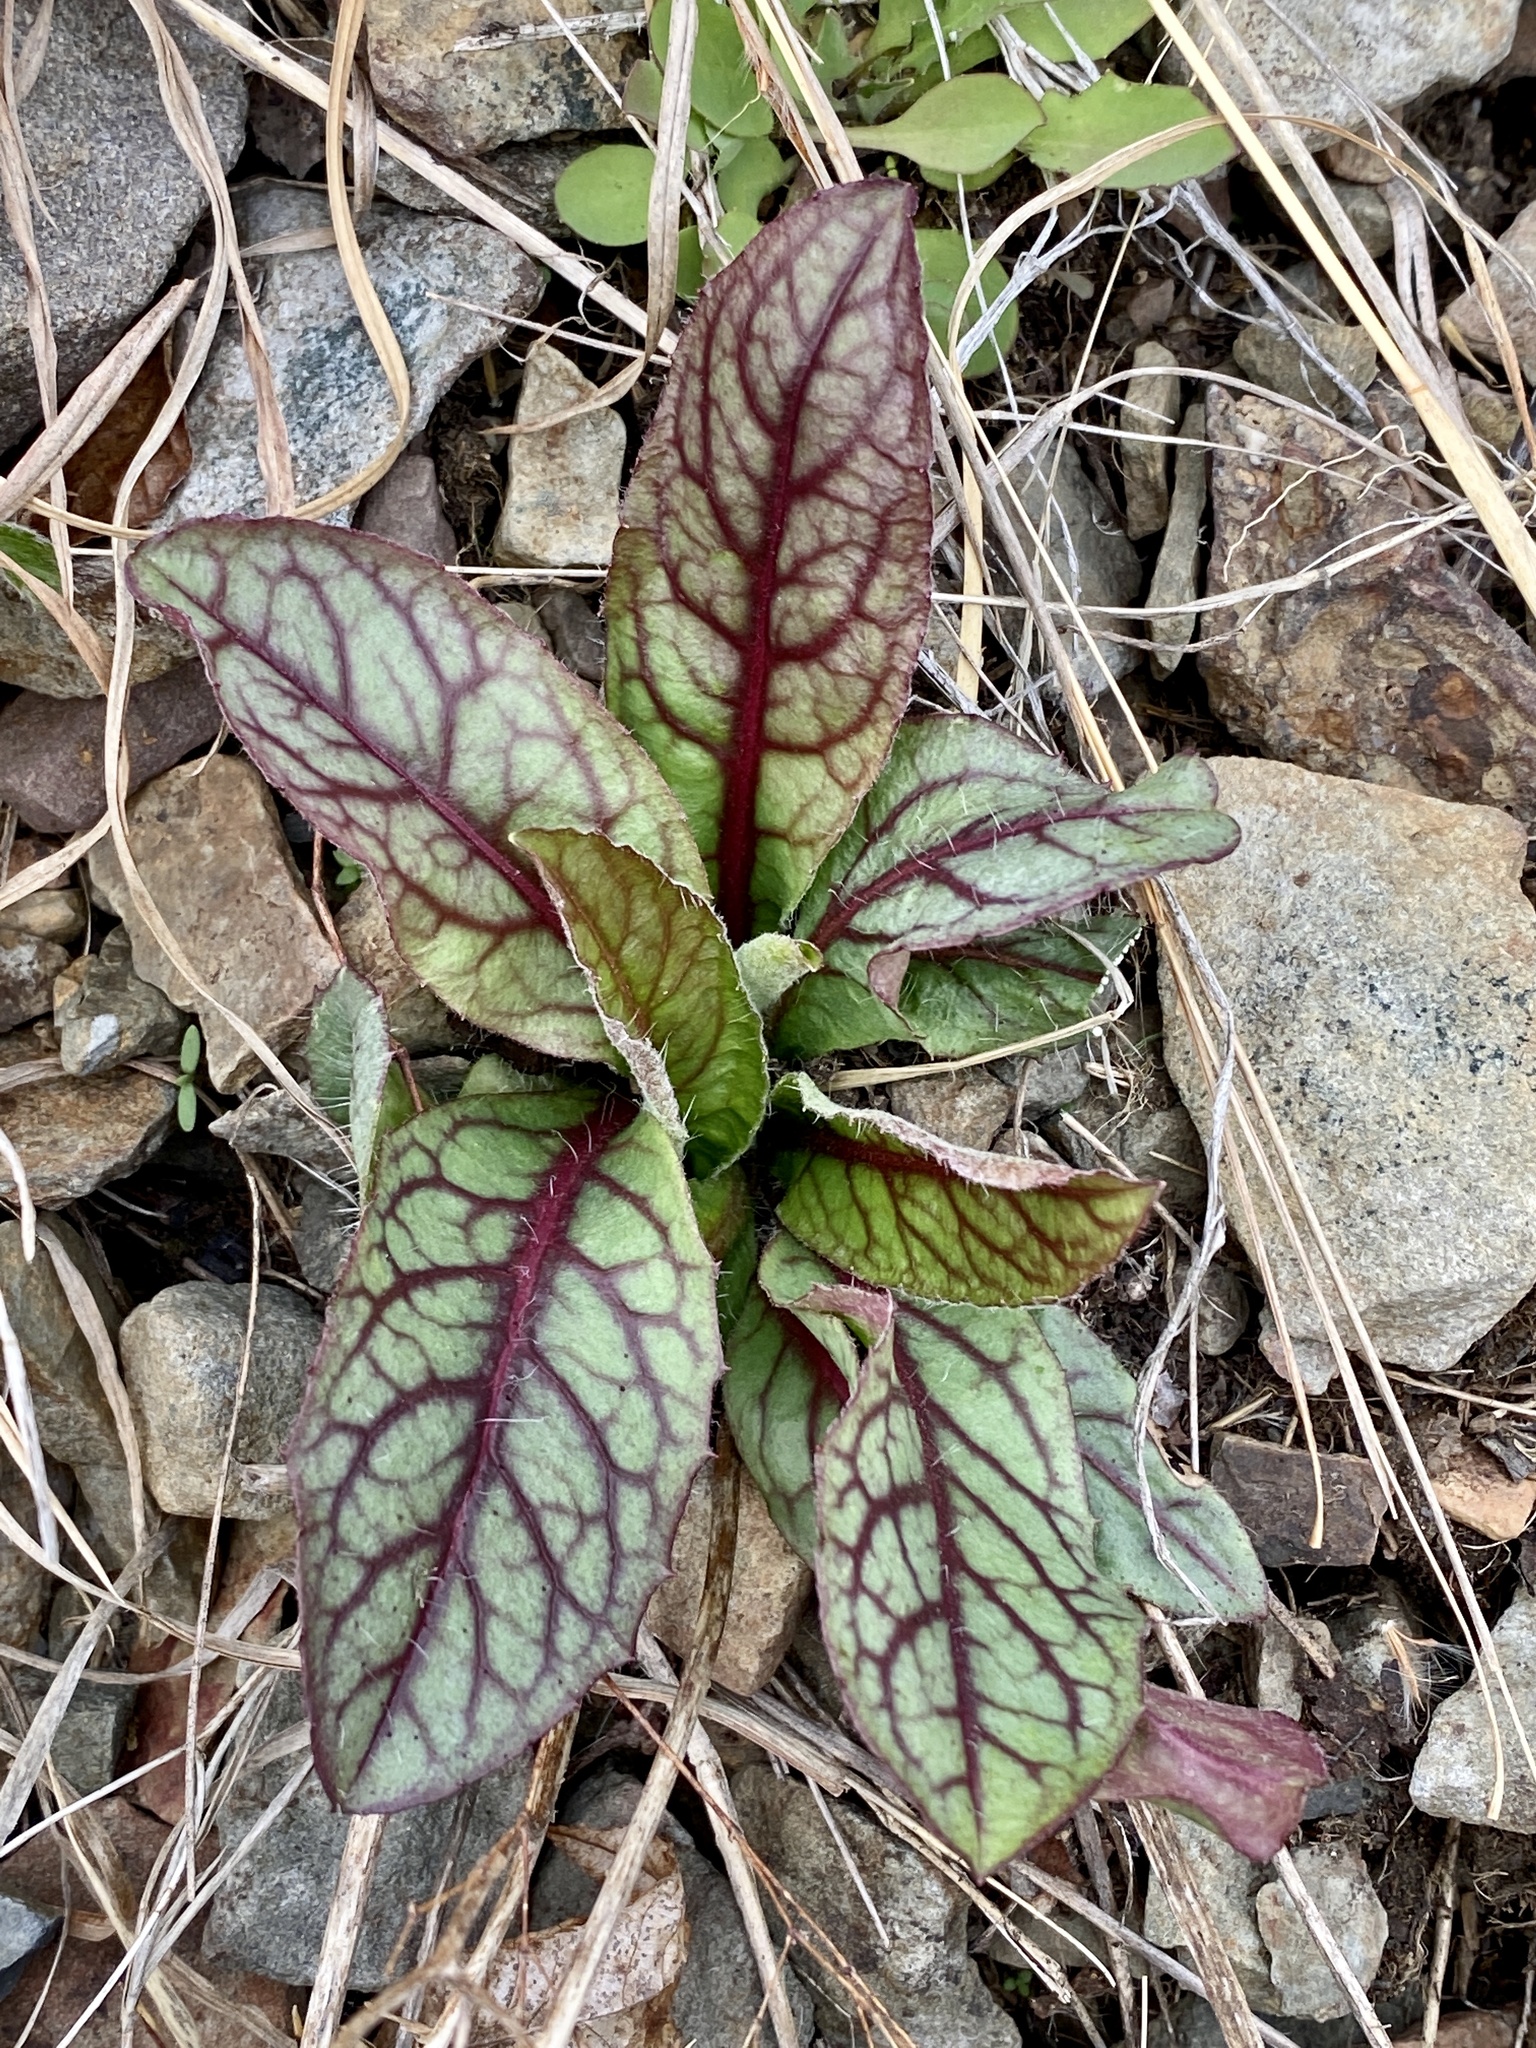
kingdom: Plantae
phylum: Tracheophyta
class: Magnoliopsida
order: Asterales
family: Asteraceae
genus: Hieracium
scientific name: Hieracium venosum
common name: Rattlesnake hawkweed
